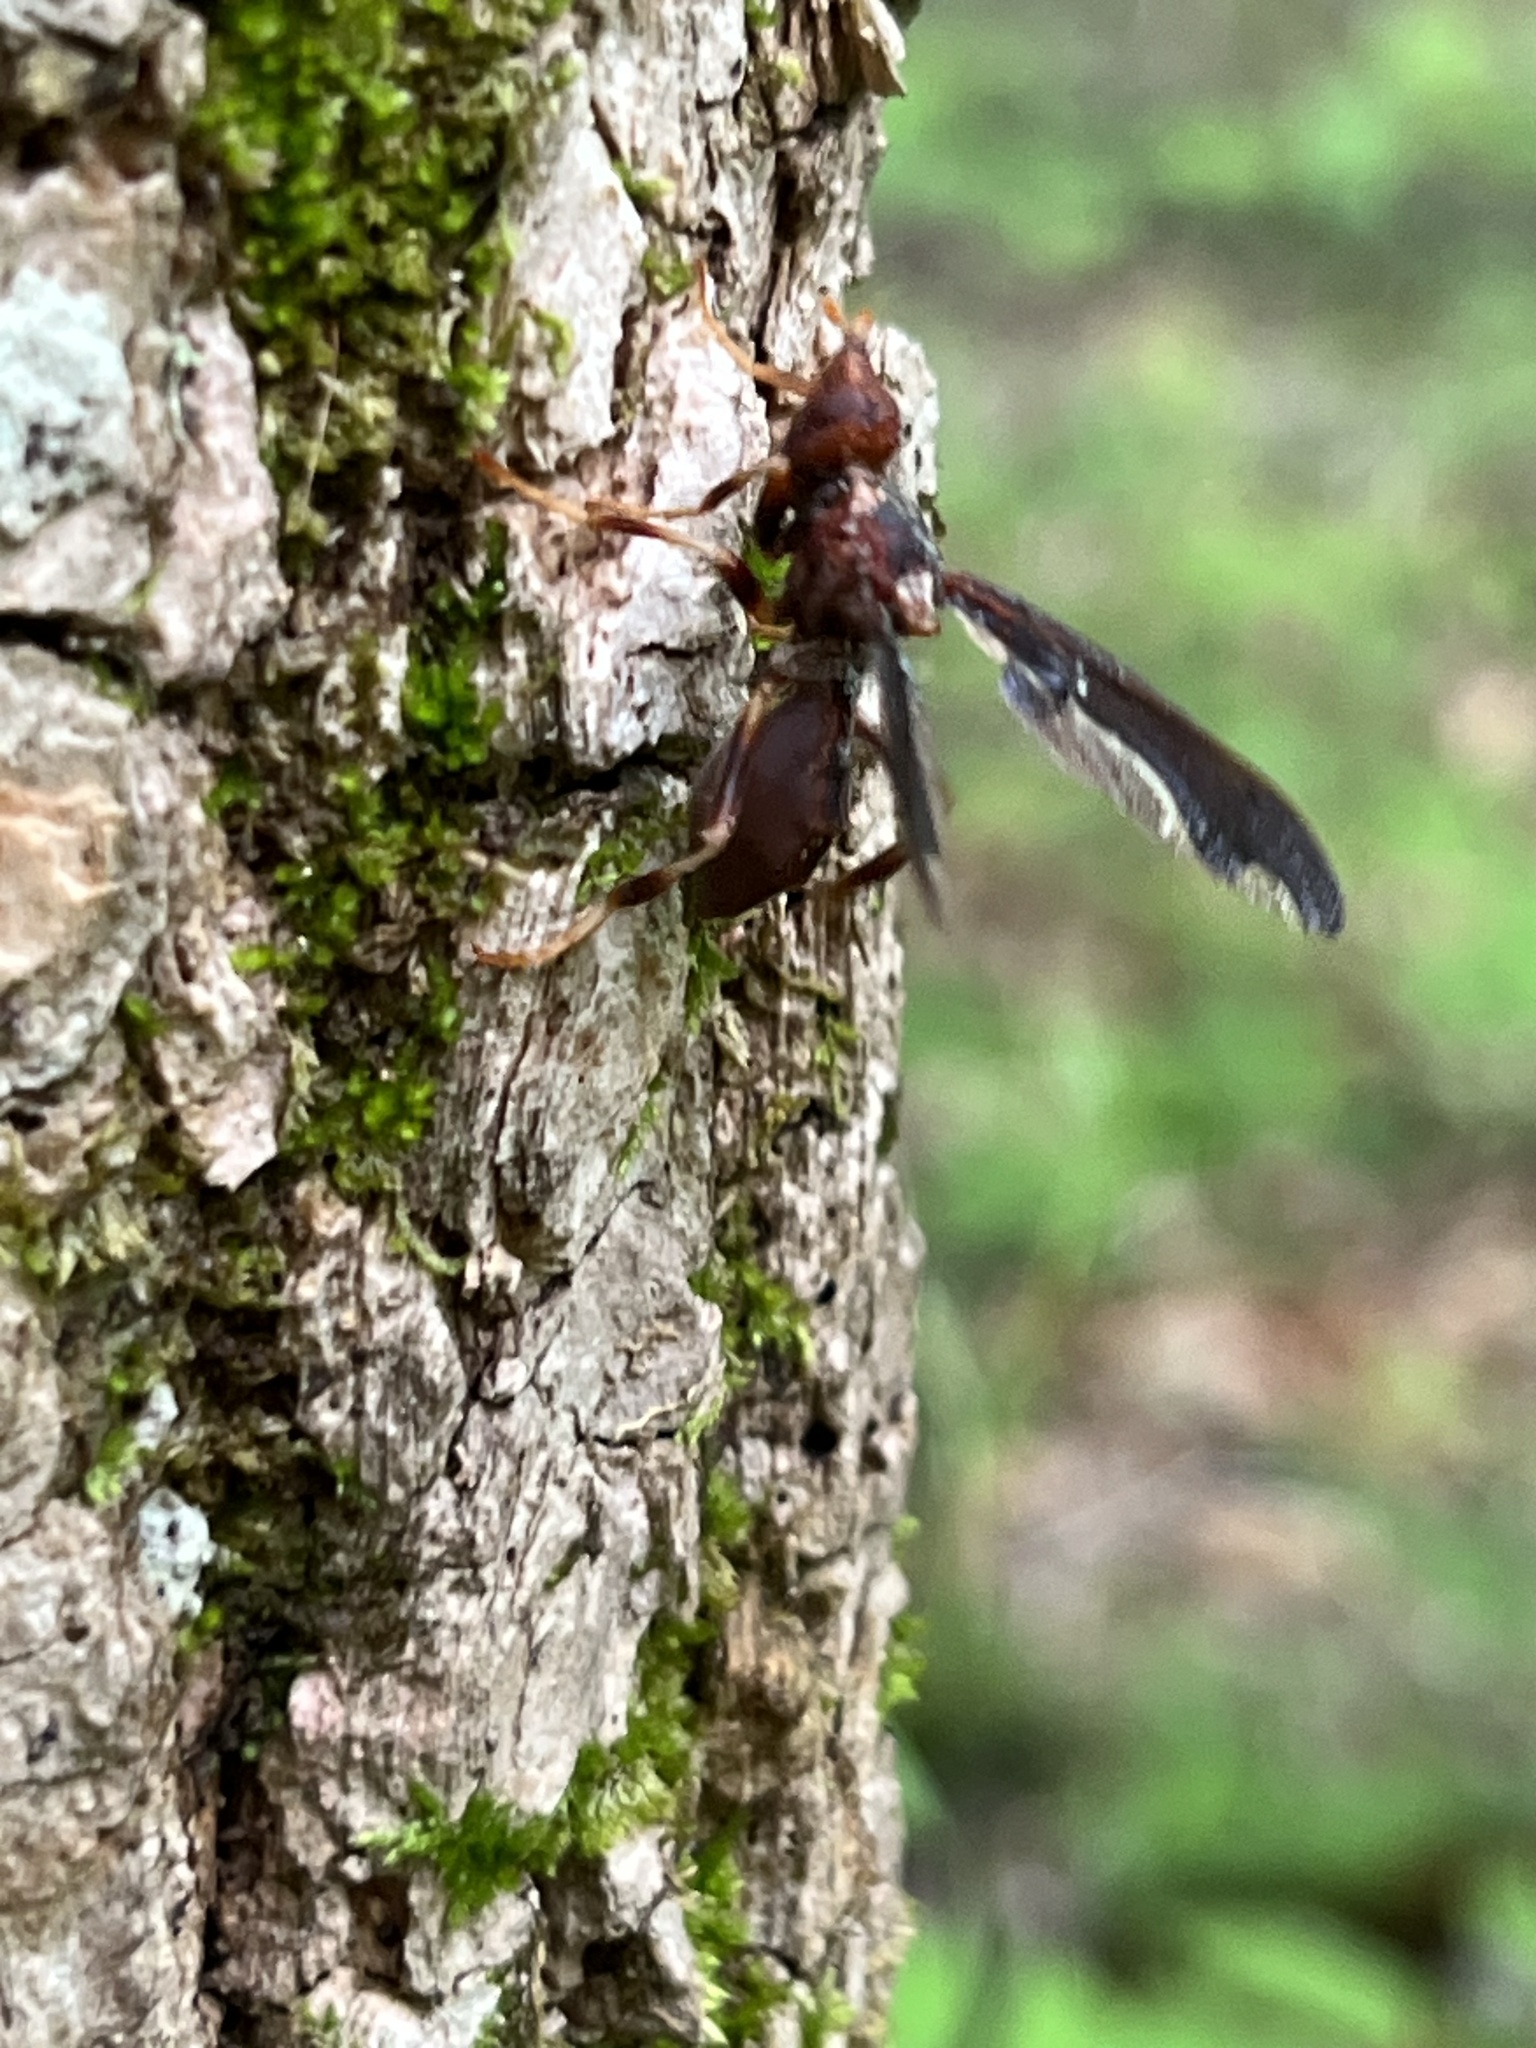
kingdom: Animalia
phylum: Arthropoda
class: Insecta
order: Diptera
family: Pyrgotidae
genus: Pyrgota
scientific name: Pyrgota undata
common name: Waved light fly
